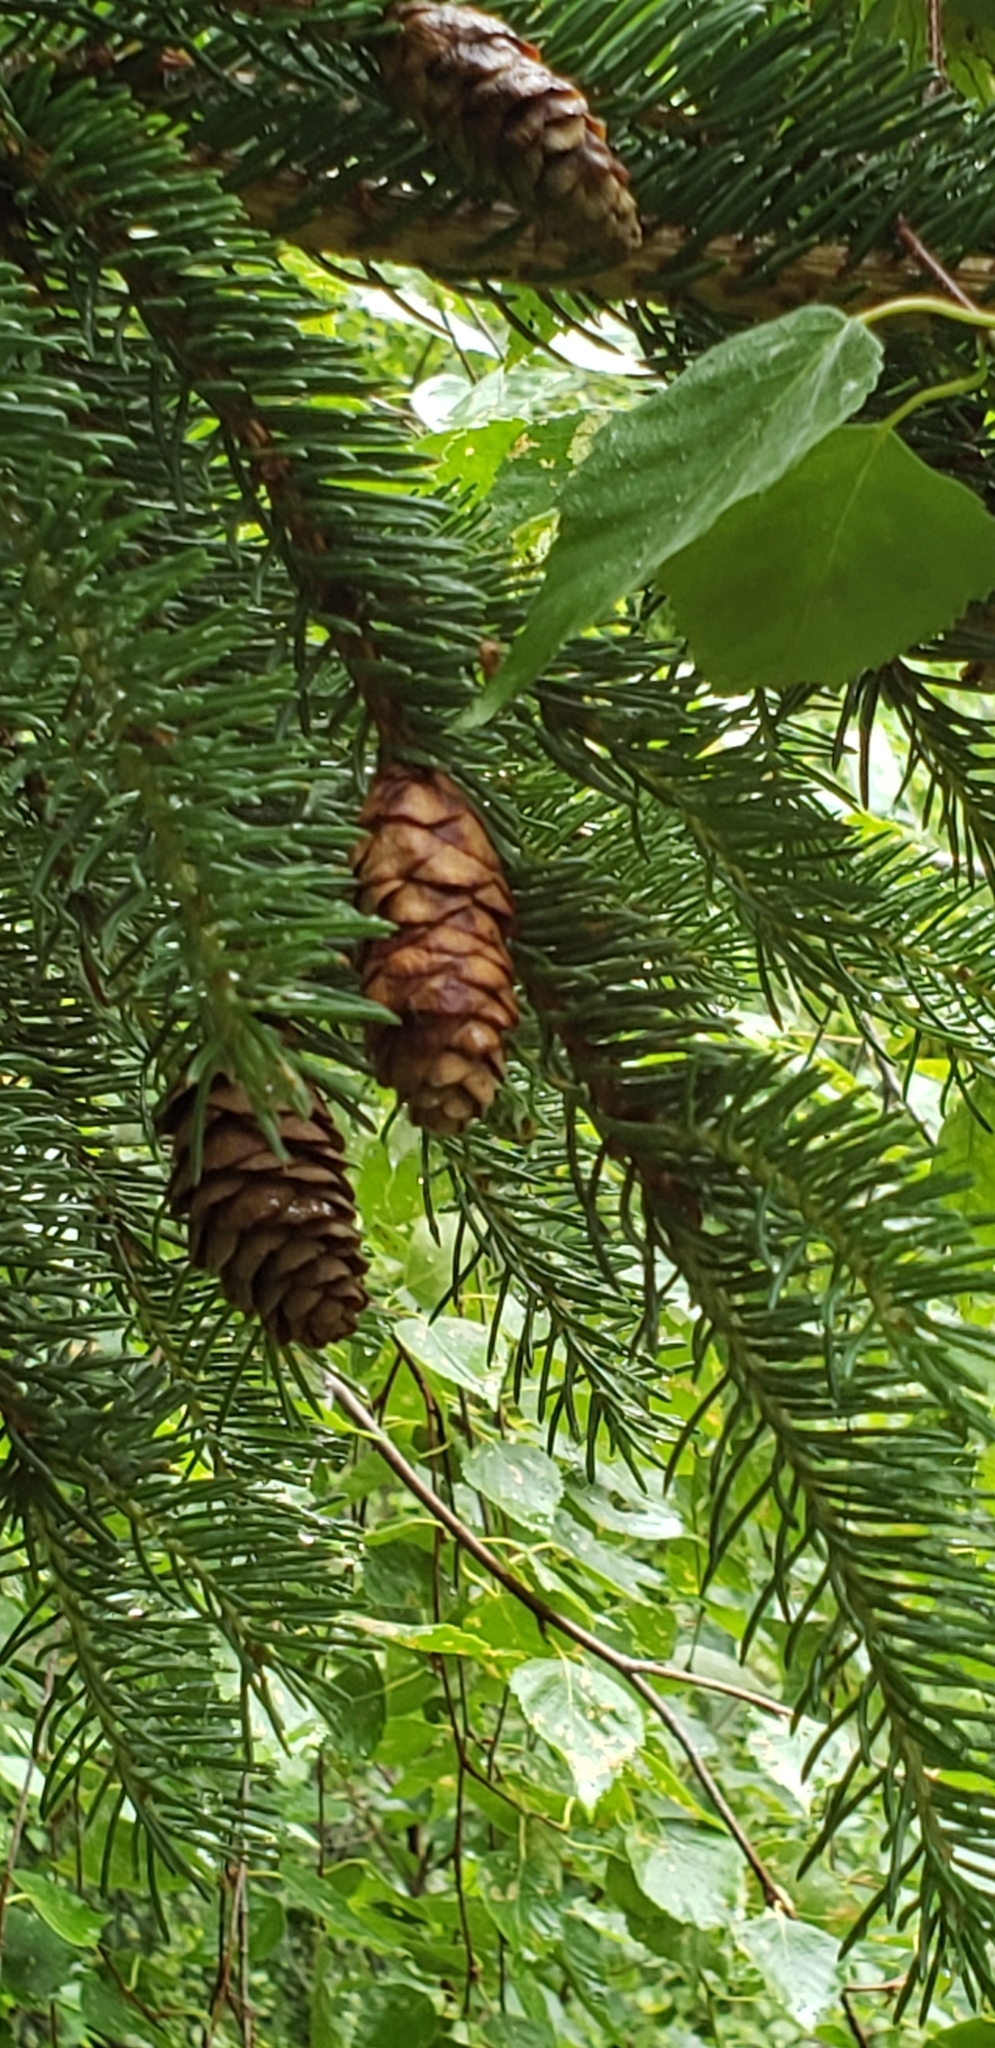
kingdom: Plantae
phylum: Tracheophyta
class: Pinopsida
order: Pinales
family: Pinaceae
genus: Picea
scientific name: Picea glauca
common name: White spruce
